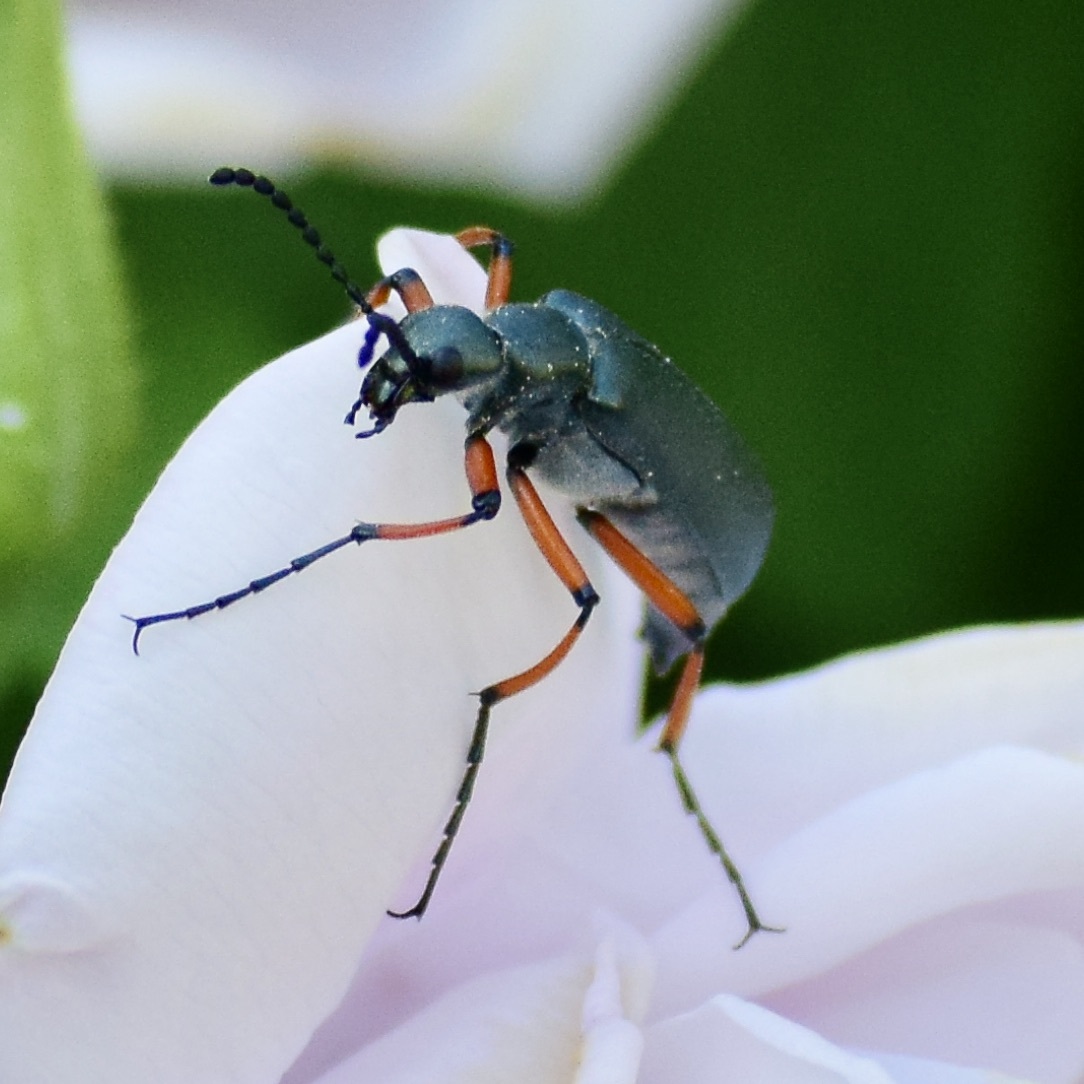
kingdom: Animalia
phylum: Arthropoda
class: Insecta
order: Coleoptera
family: Meloidae
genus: Lytta
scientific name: Lytta sayi
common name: Say's blister beetle
